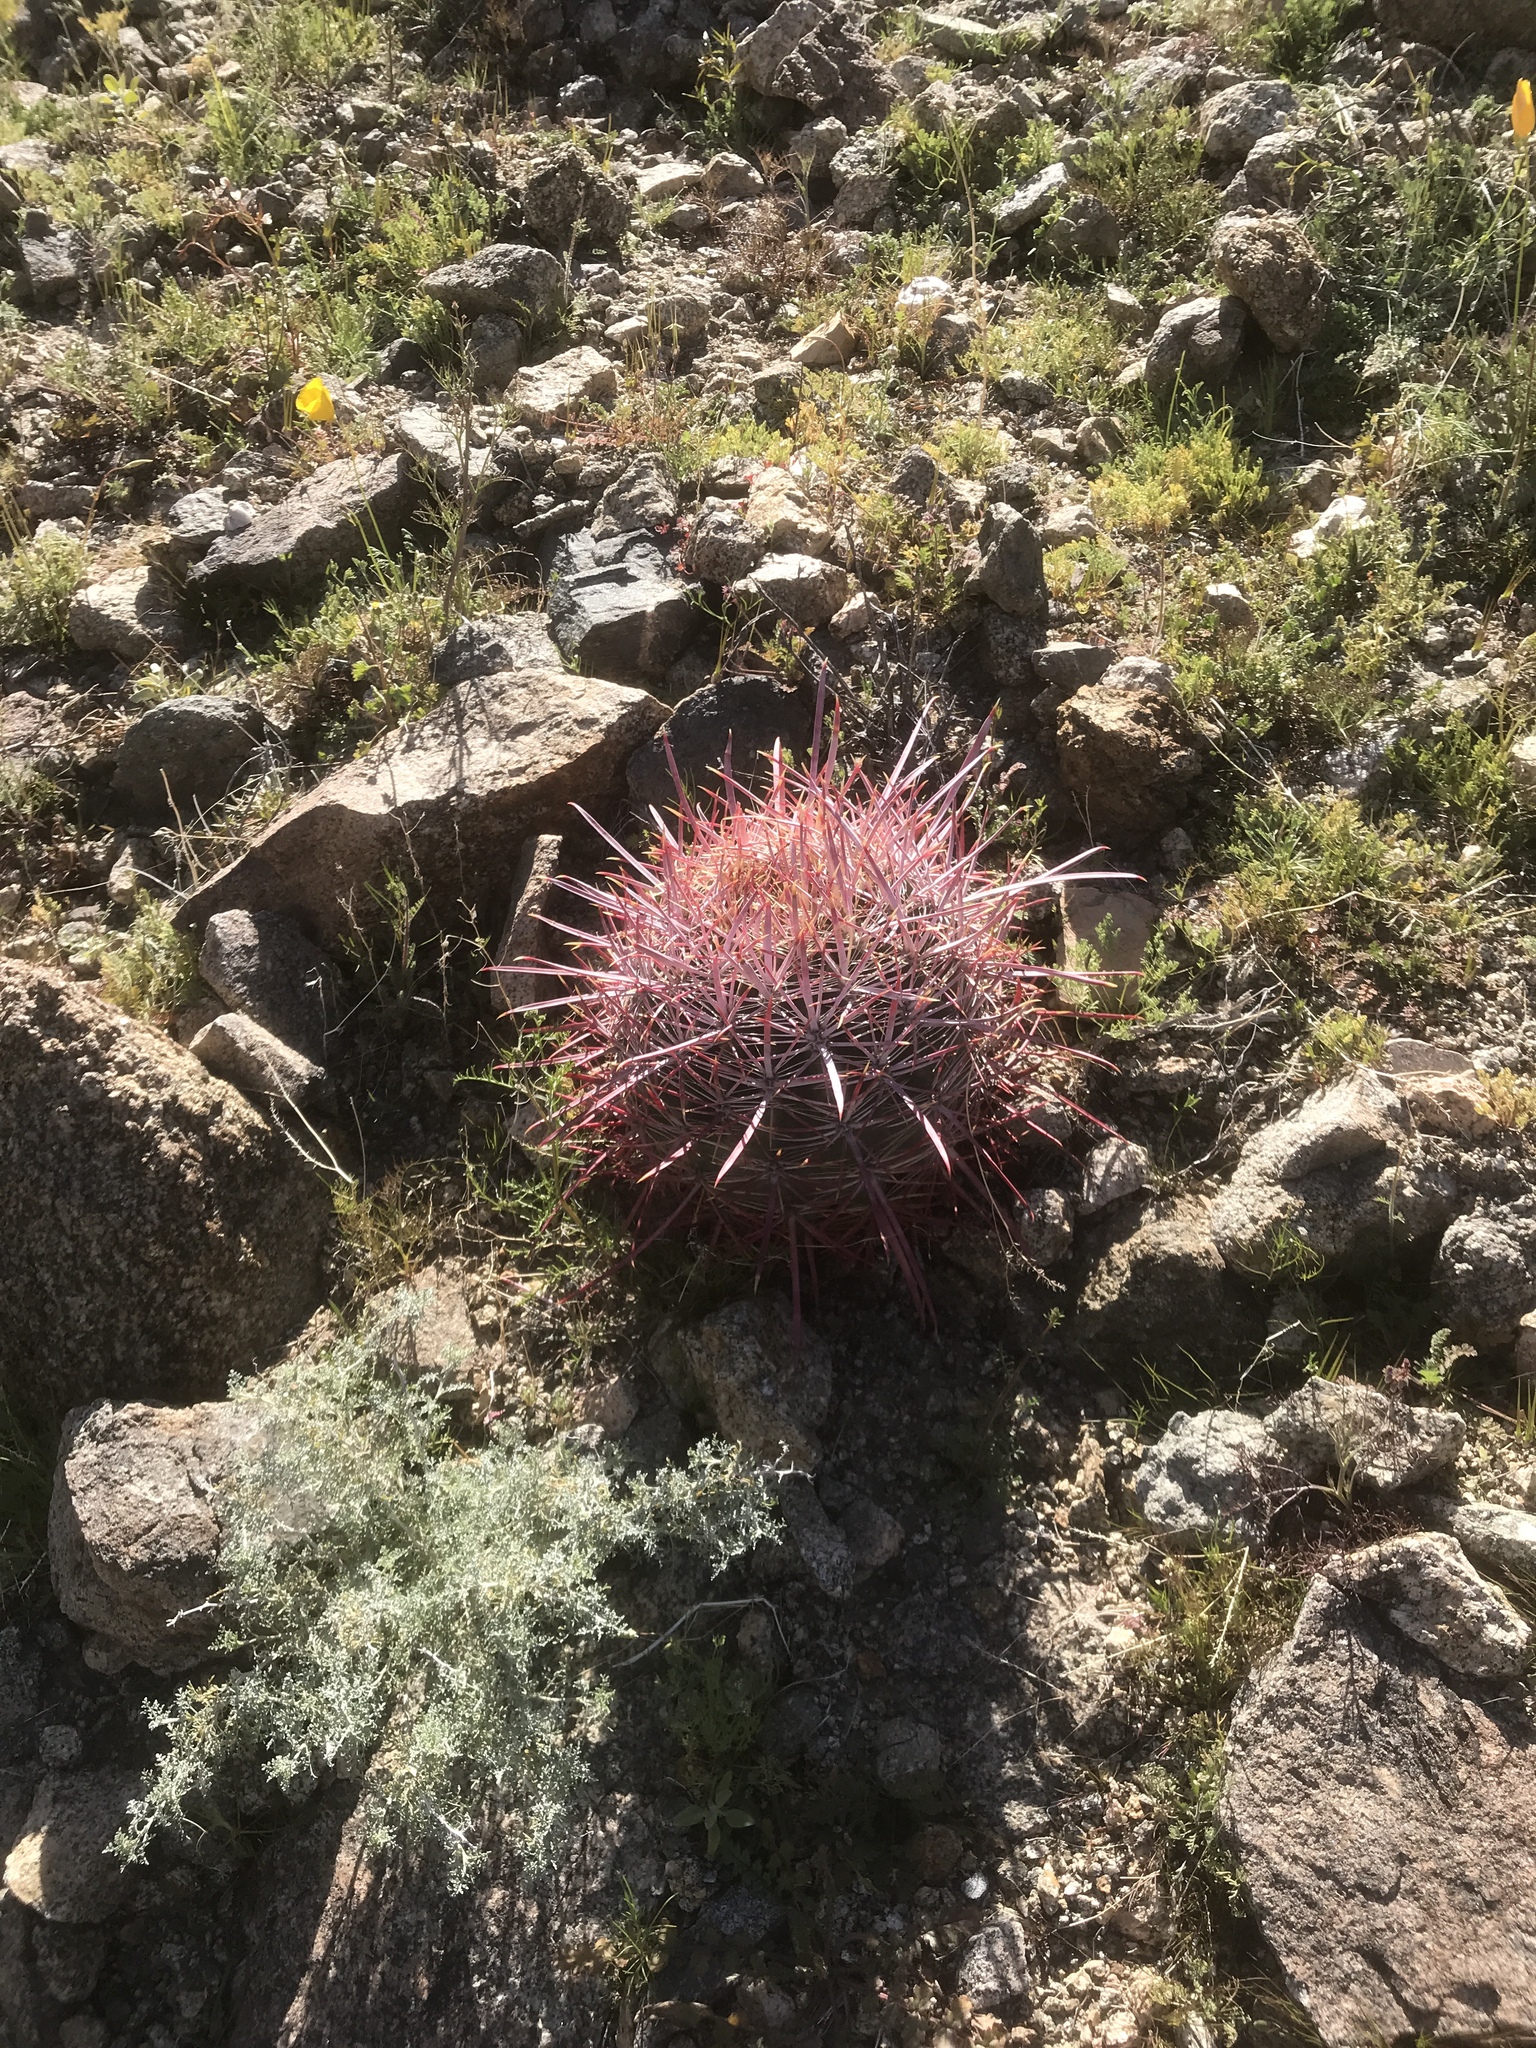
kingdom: Plantae
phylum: Tracheophyta
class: Magnoliopsida
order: Caryophyllales
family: Cactaceae
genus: Ferocactus
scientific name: Ferocactus cylindraceus
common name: California barrel cactus
